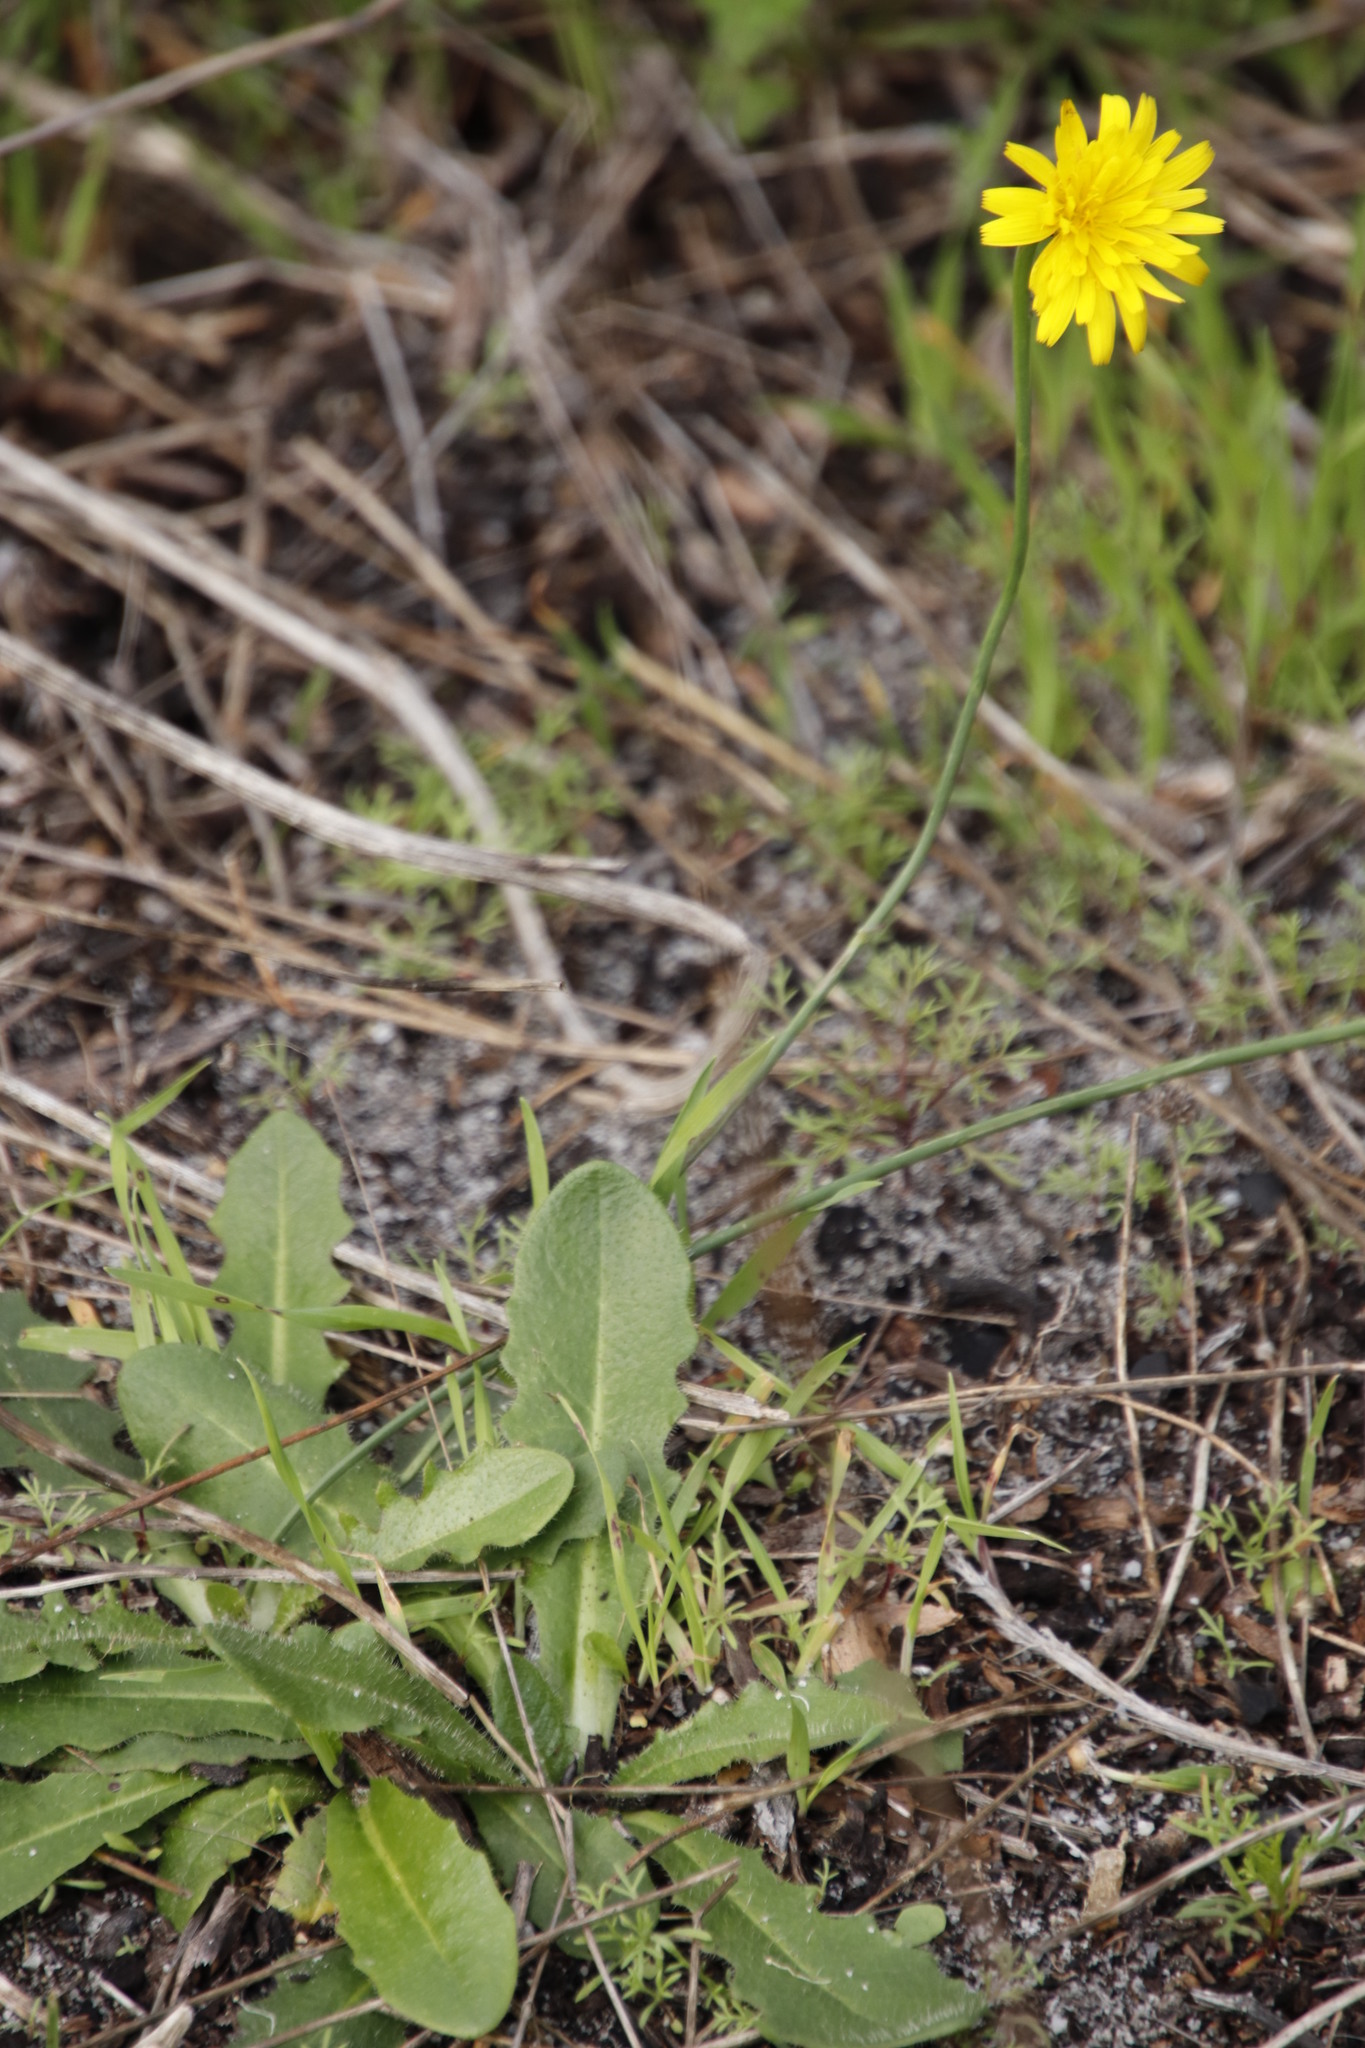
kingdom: Plantae
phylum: Tracheophyta
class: Magnoliopsida
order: Asterales
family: Asteraceae
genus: Hypochaeris
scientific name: Hypochaeris radicata
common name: Flatweed
